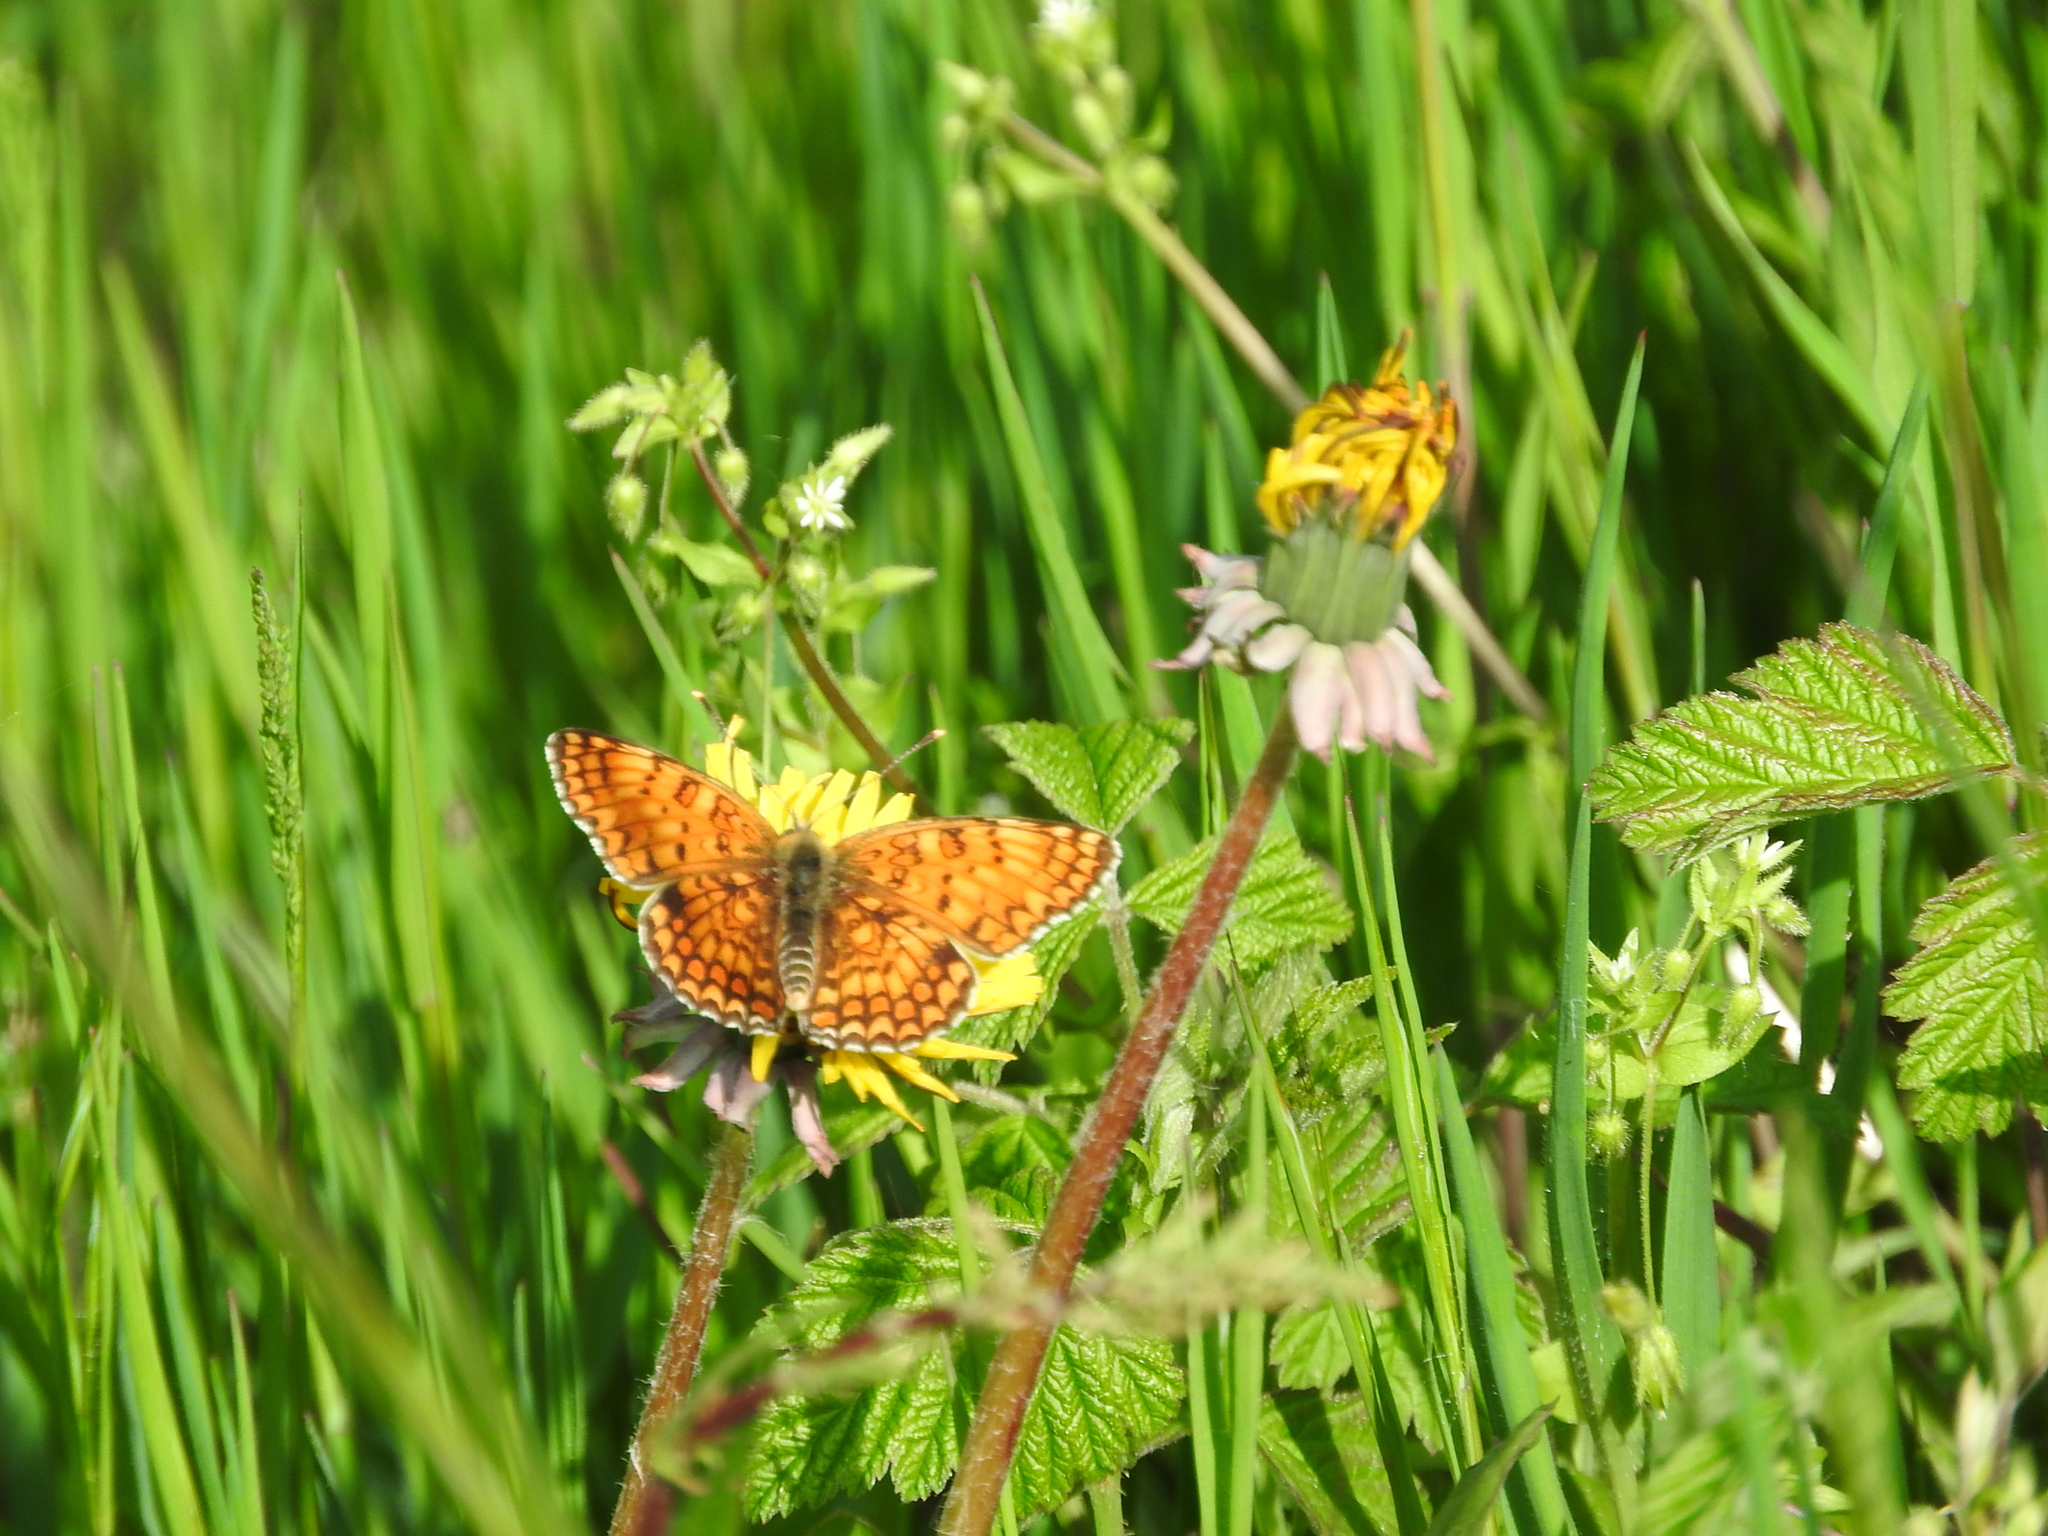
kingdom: Animalia
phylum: Arthropoda
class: Insecta
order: Lepidoptera
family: Nymphalidae
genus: Melitaea
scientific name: Melitaea phoebe
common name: Knapweed fritillary
